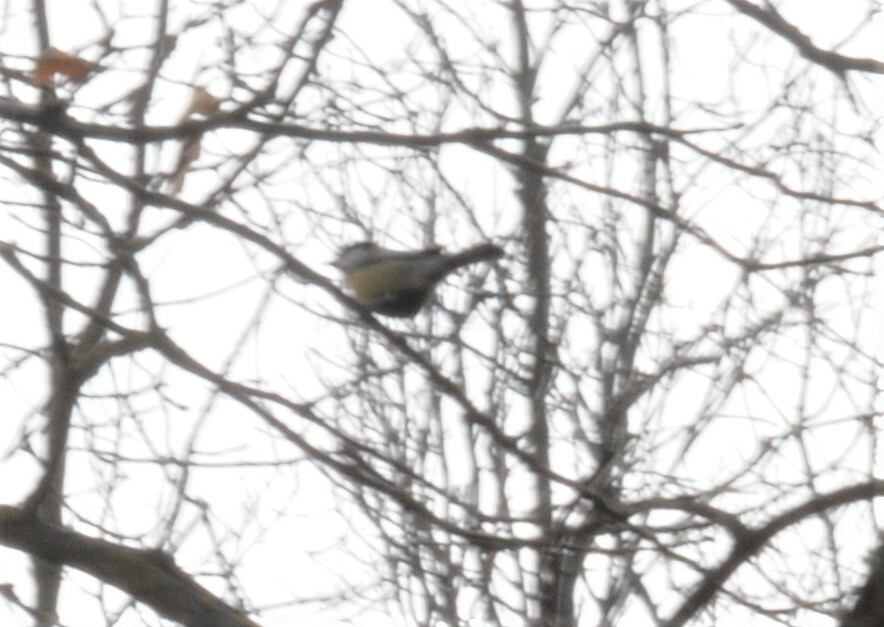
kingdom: Animalia
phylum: Chordata
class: Aves
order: Passeriformes
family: Paridae
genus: Parus
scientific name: Parus major
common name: Great tit
